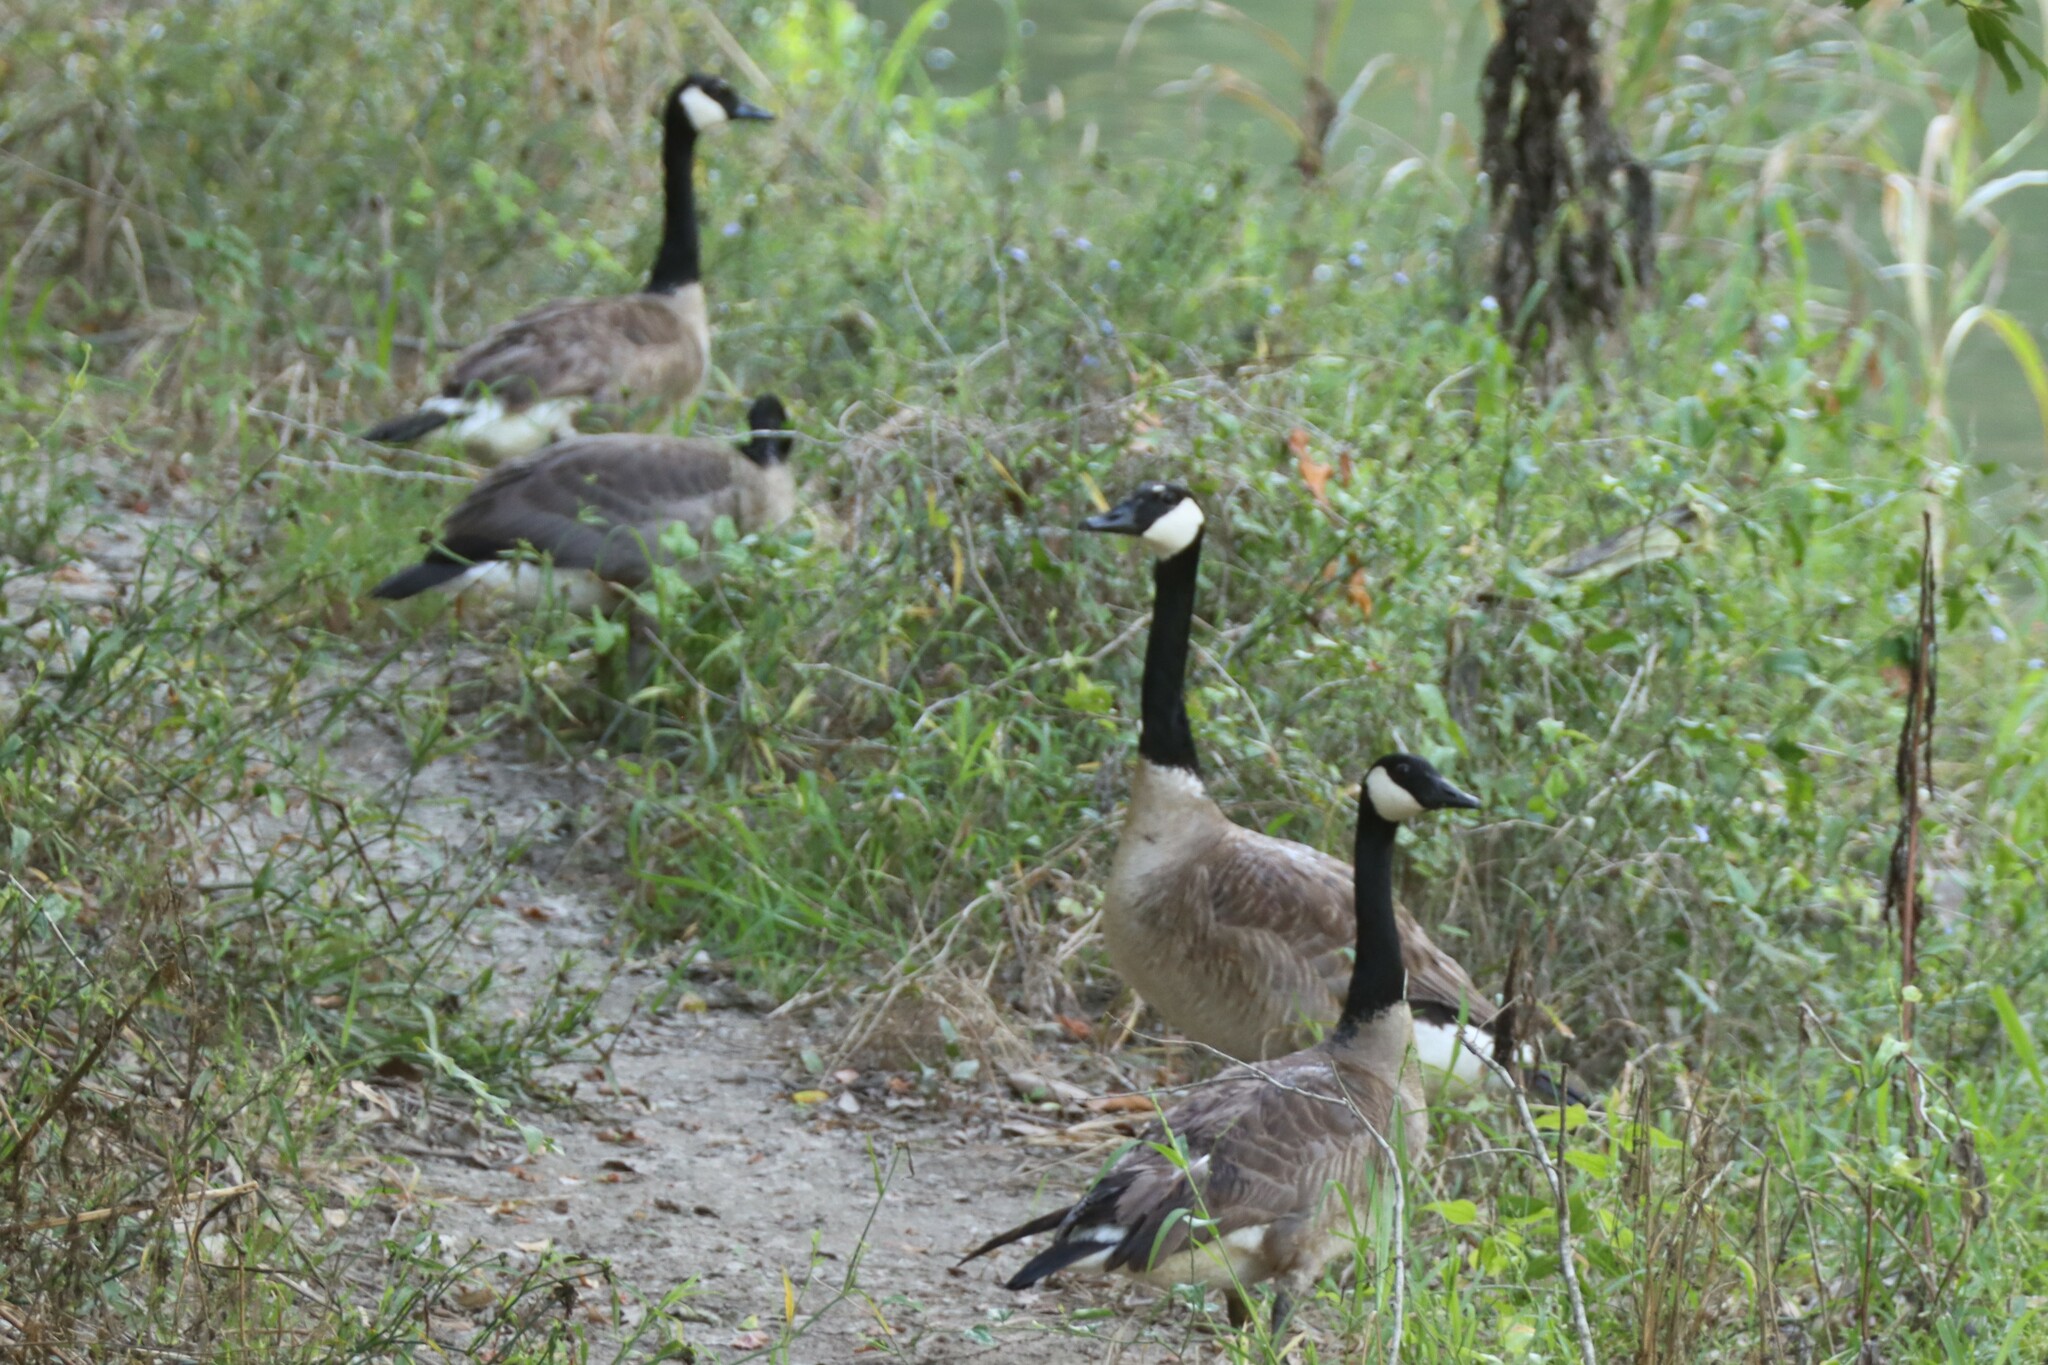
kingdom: Animalia
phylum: Chordata
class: Aves
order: Anseriformes
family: Anatidae
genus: Branta
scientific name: Branta canadensis
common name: Canada goose
